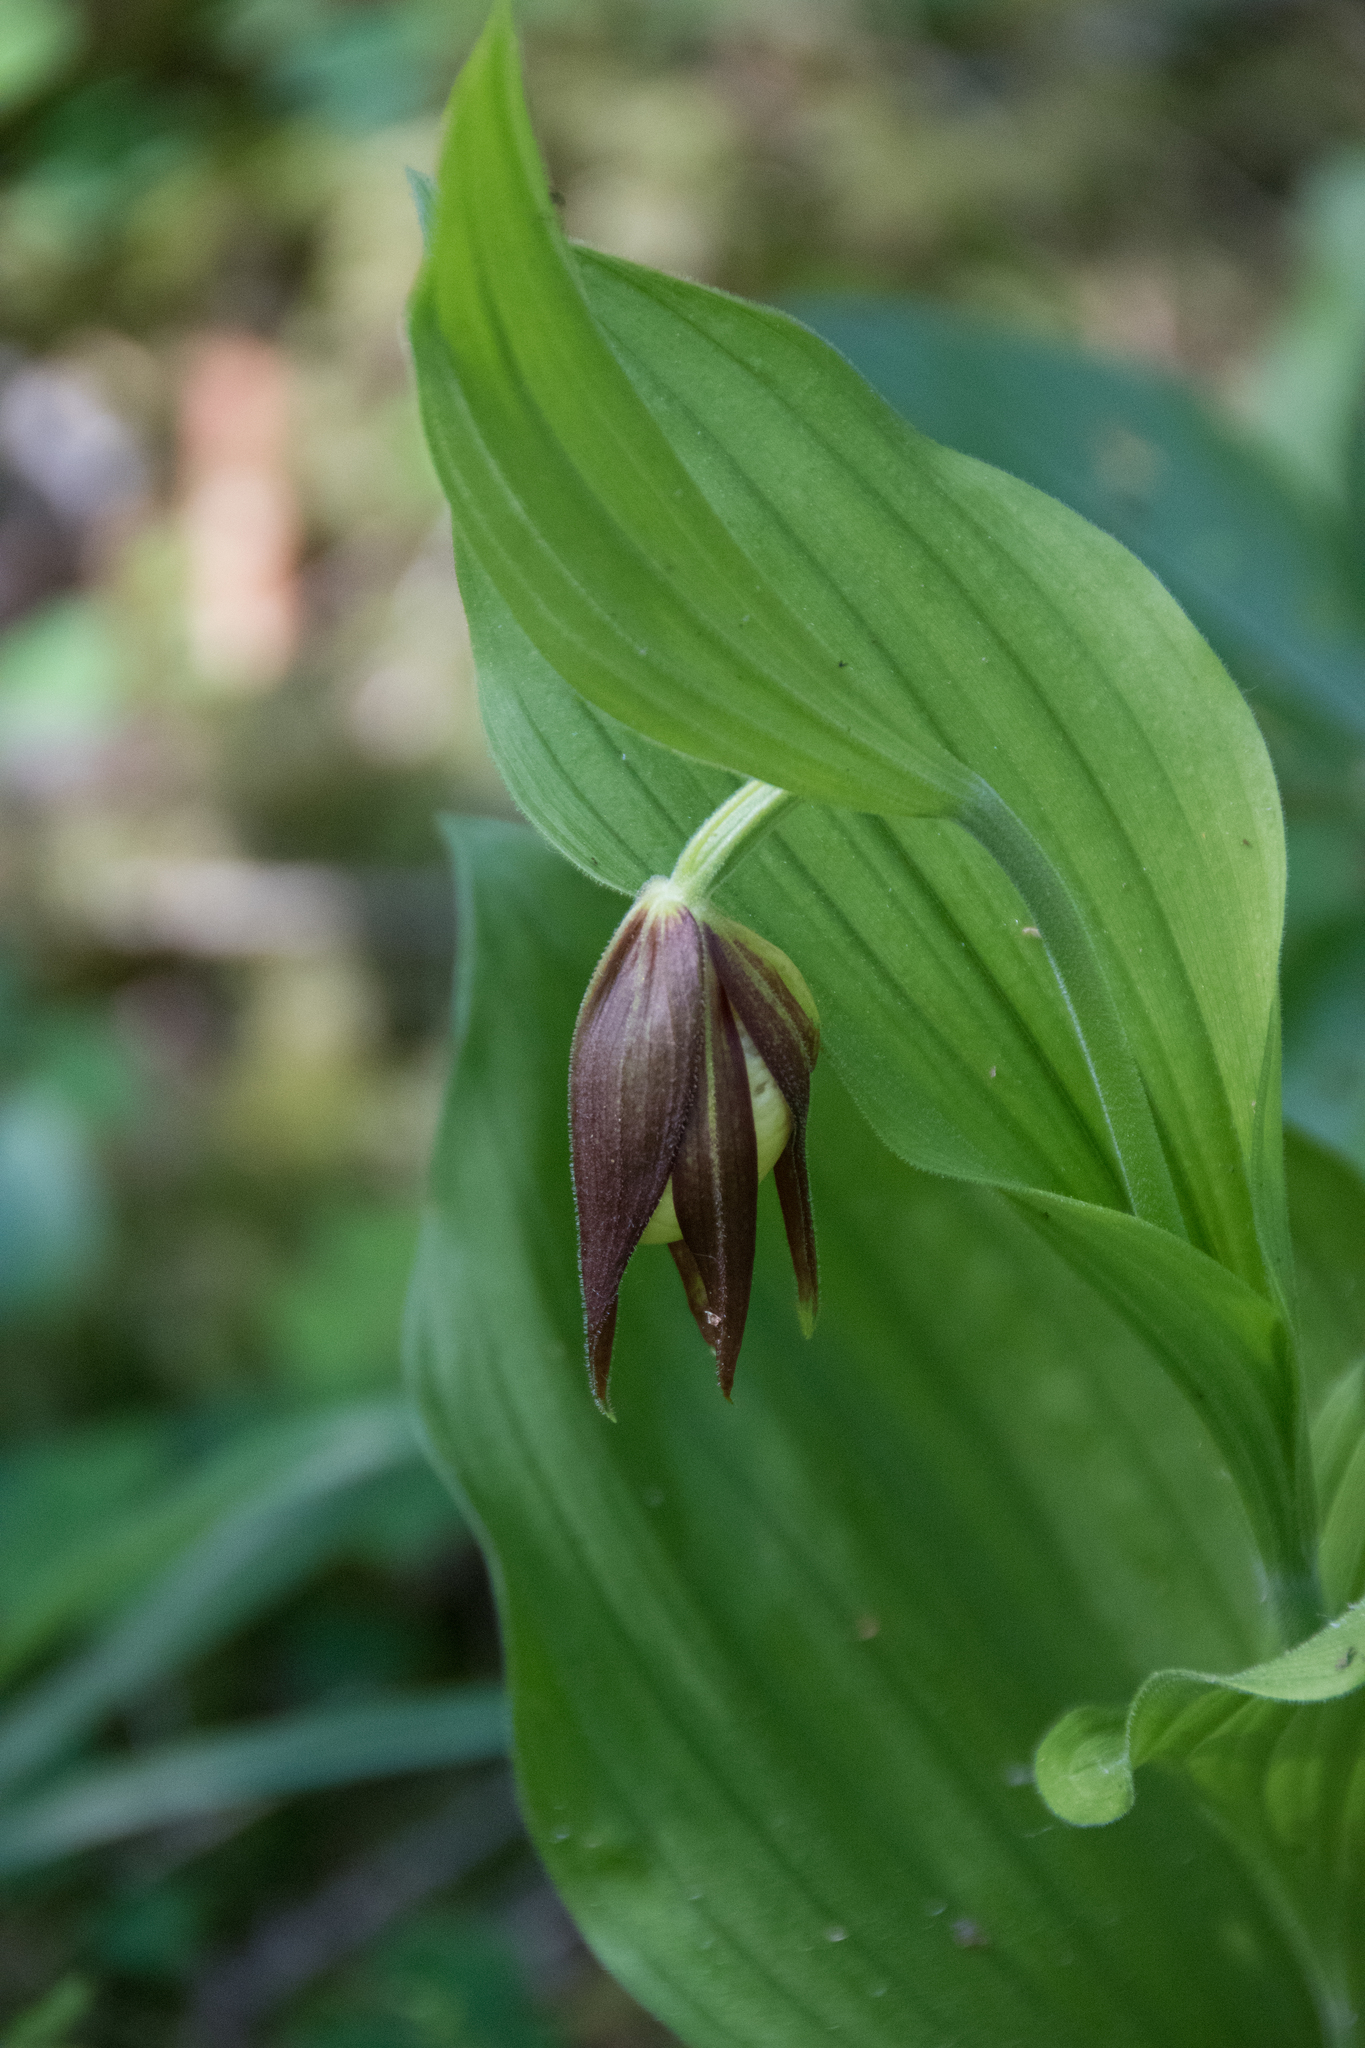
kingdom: Plantae
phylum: Tracheophyta
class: Liliopsida
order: Asparagales
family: Orchidaceae
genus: Cypripedium
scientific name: Cypripedium calceolus
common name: Lady's-slipper
